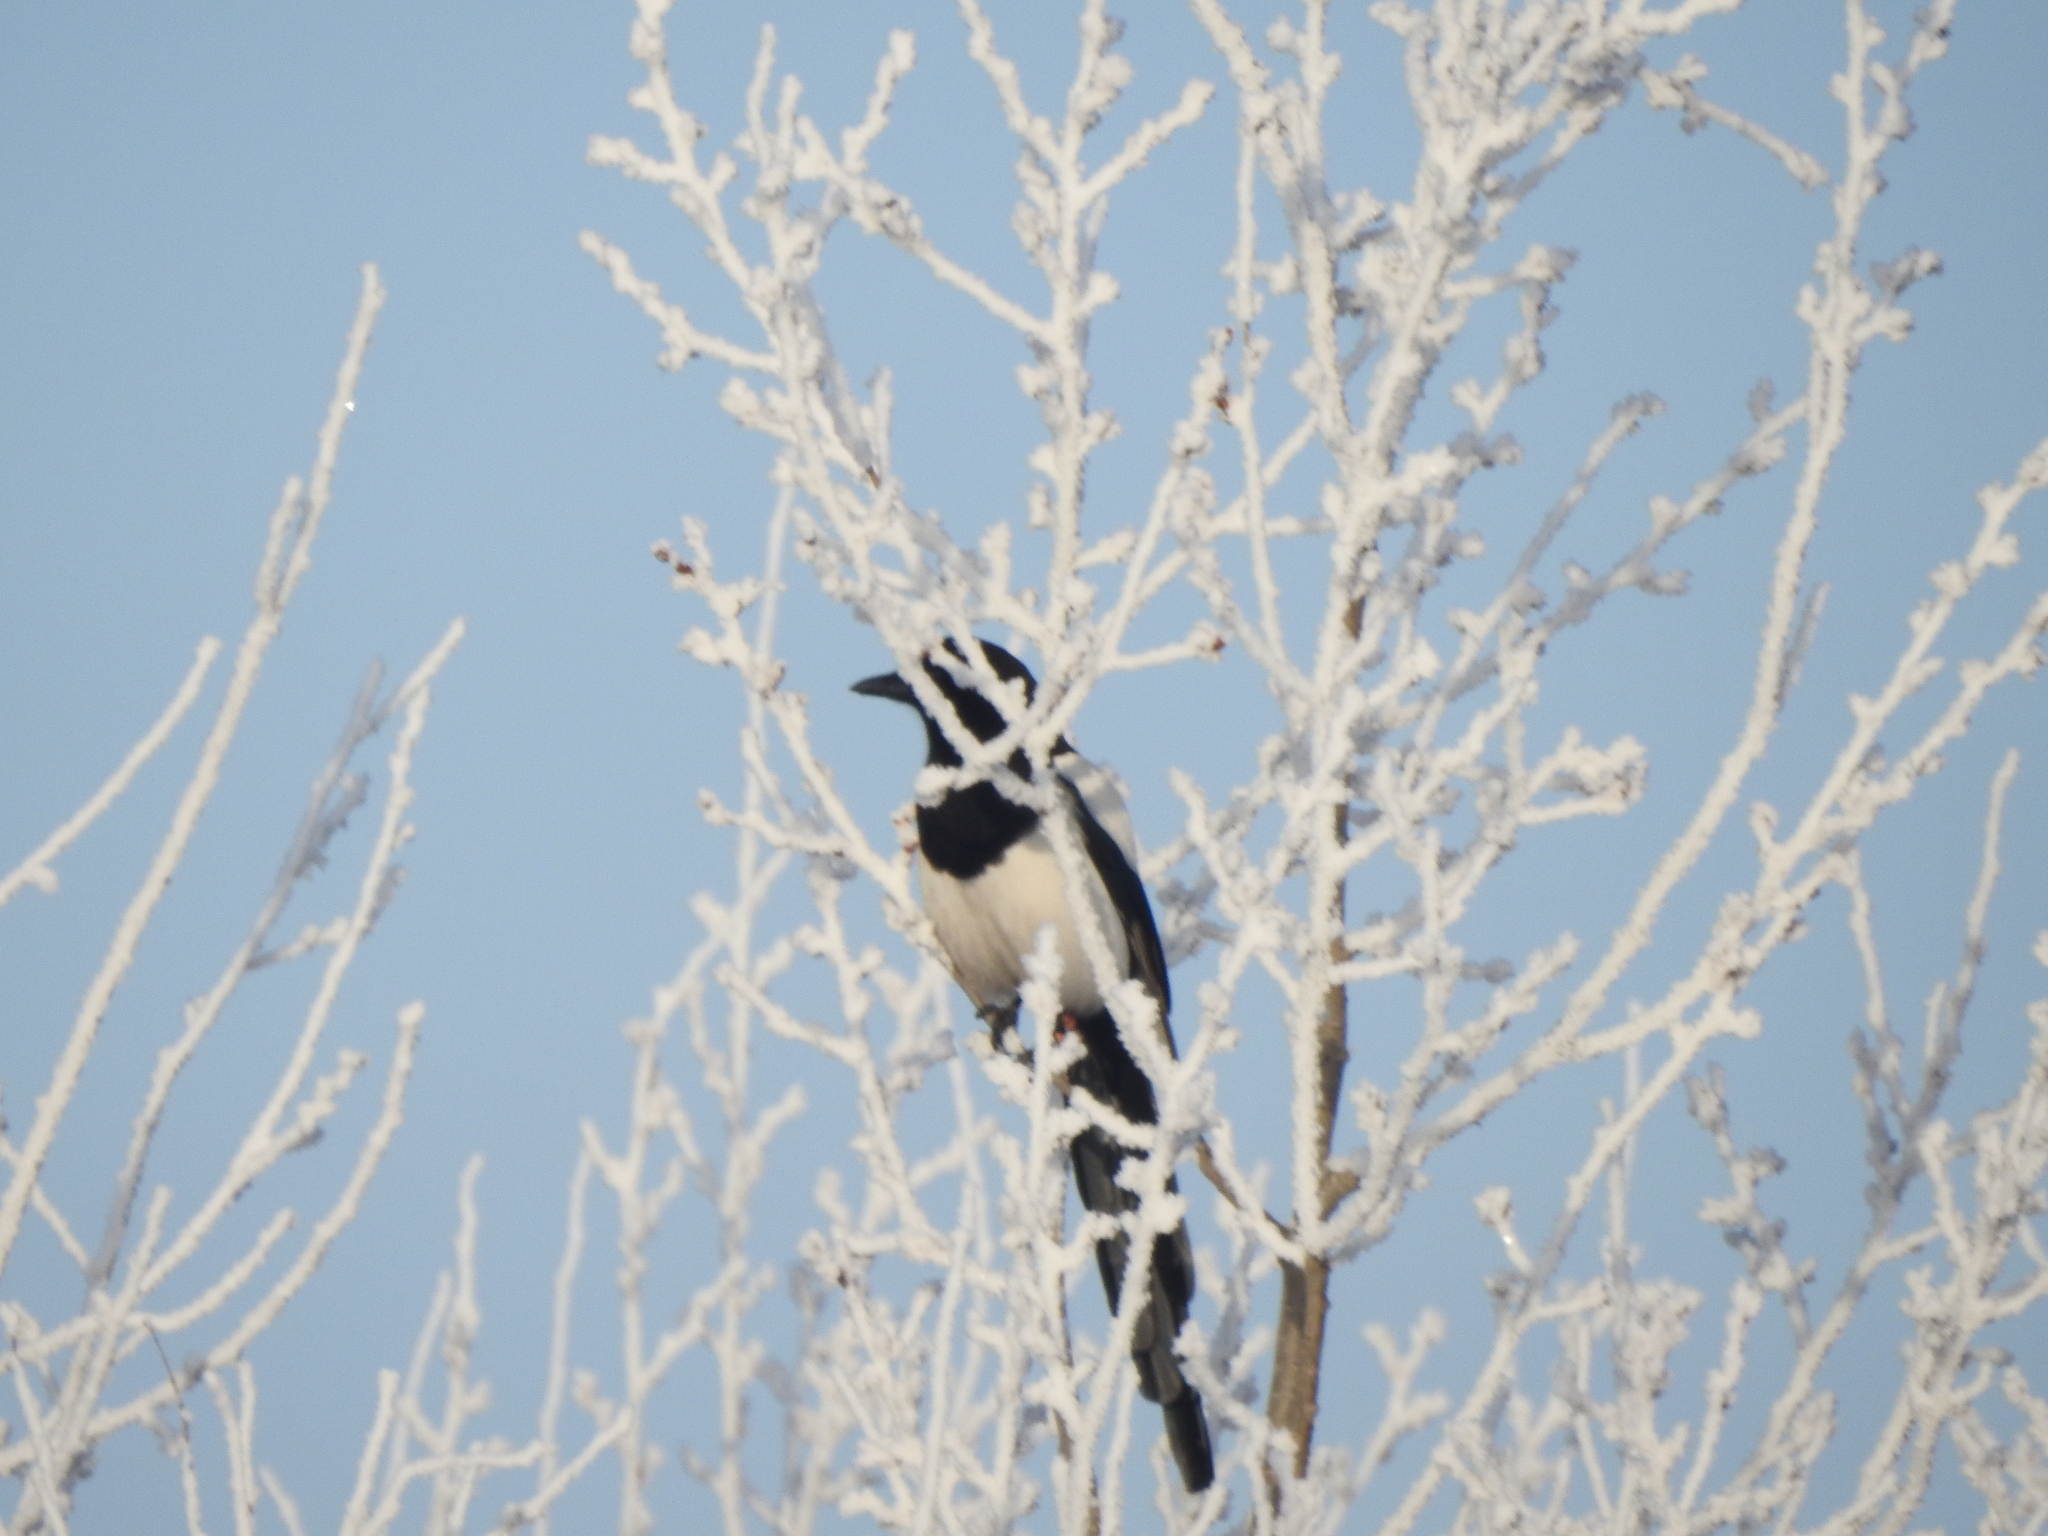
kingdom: Animalia
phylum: Chordata
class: Aves
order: Passeriformes
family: Corvidae
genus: Pica
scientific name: Pica pica
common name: Eurasian magpie
